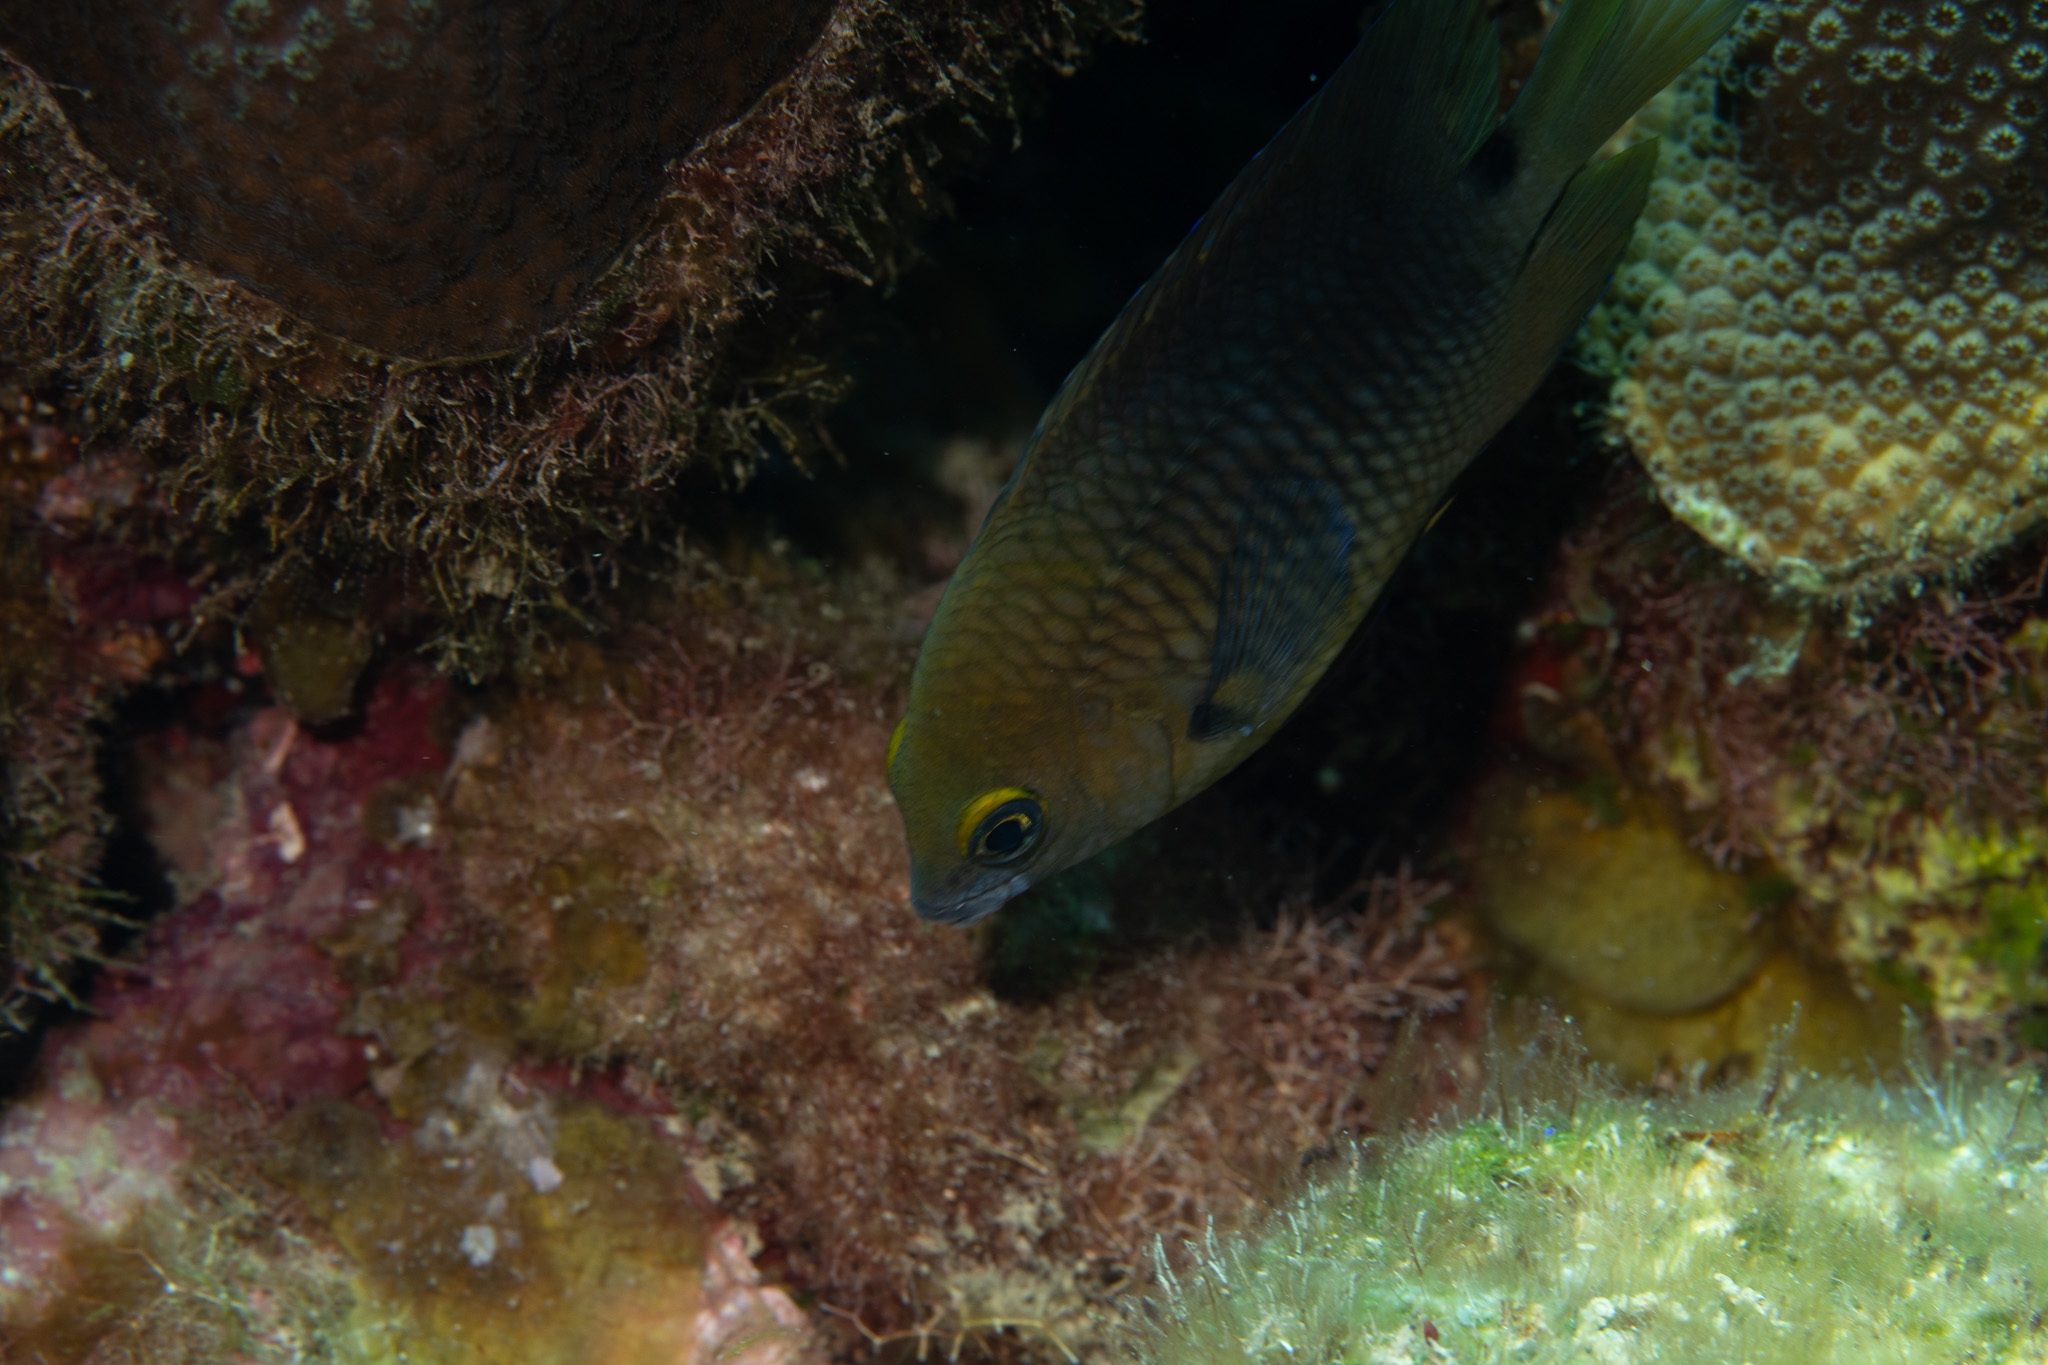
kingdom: Animalia
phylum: Chordata
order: Perciformes
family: Pomacentridae
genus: Stegastes
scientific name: Stegastes planifrons
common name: Threespot damselfish
